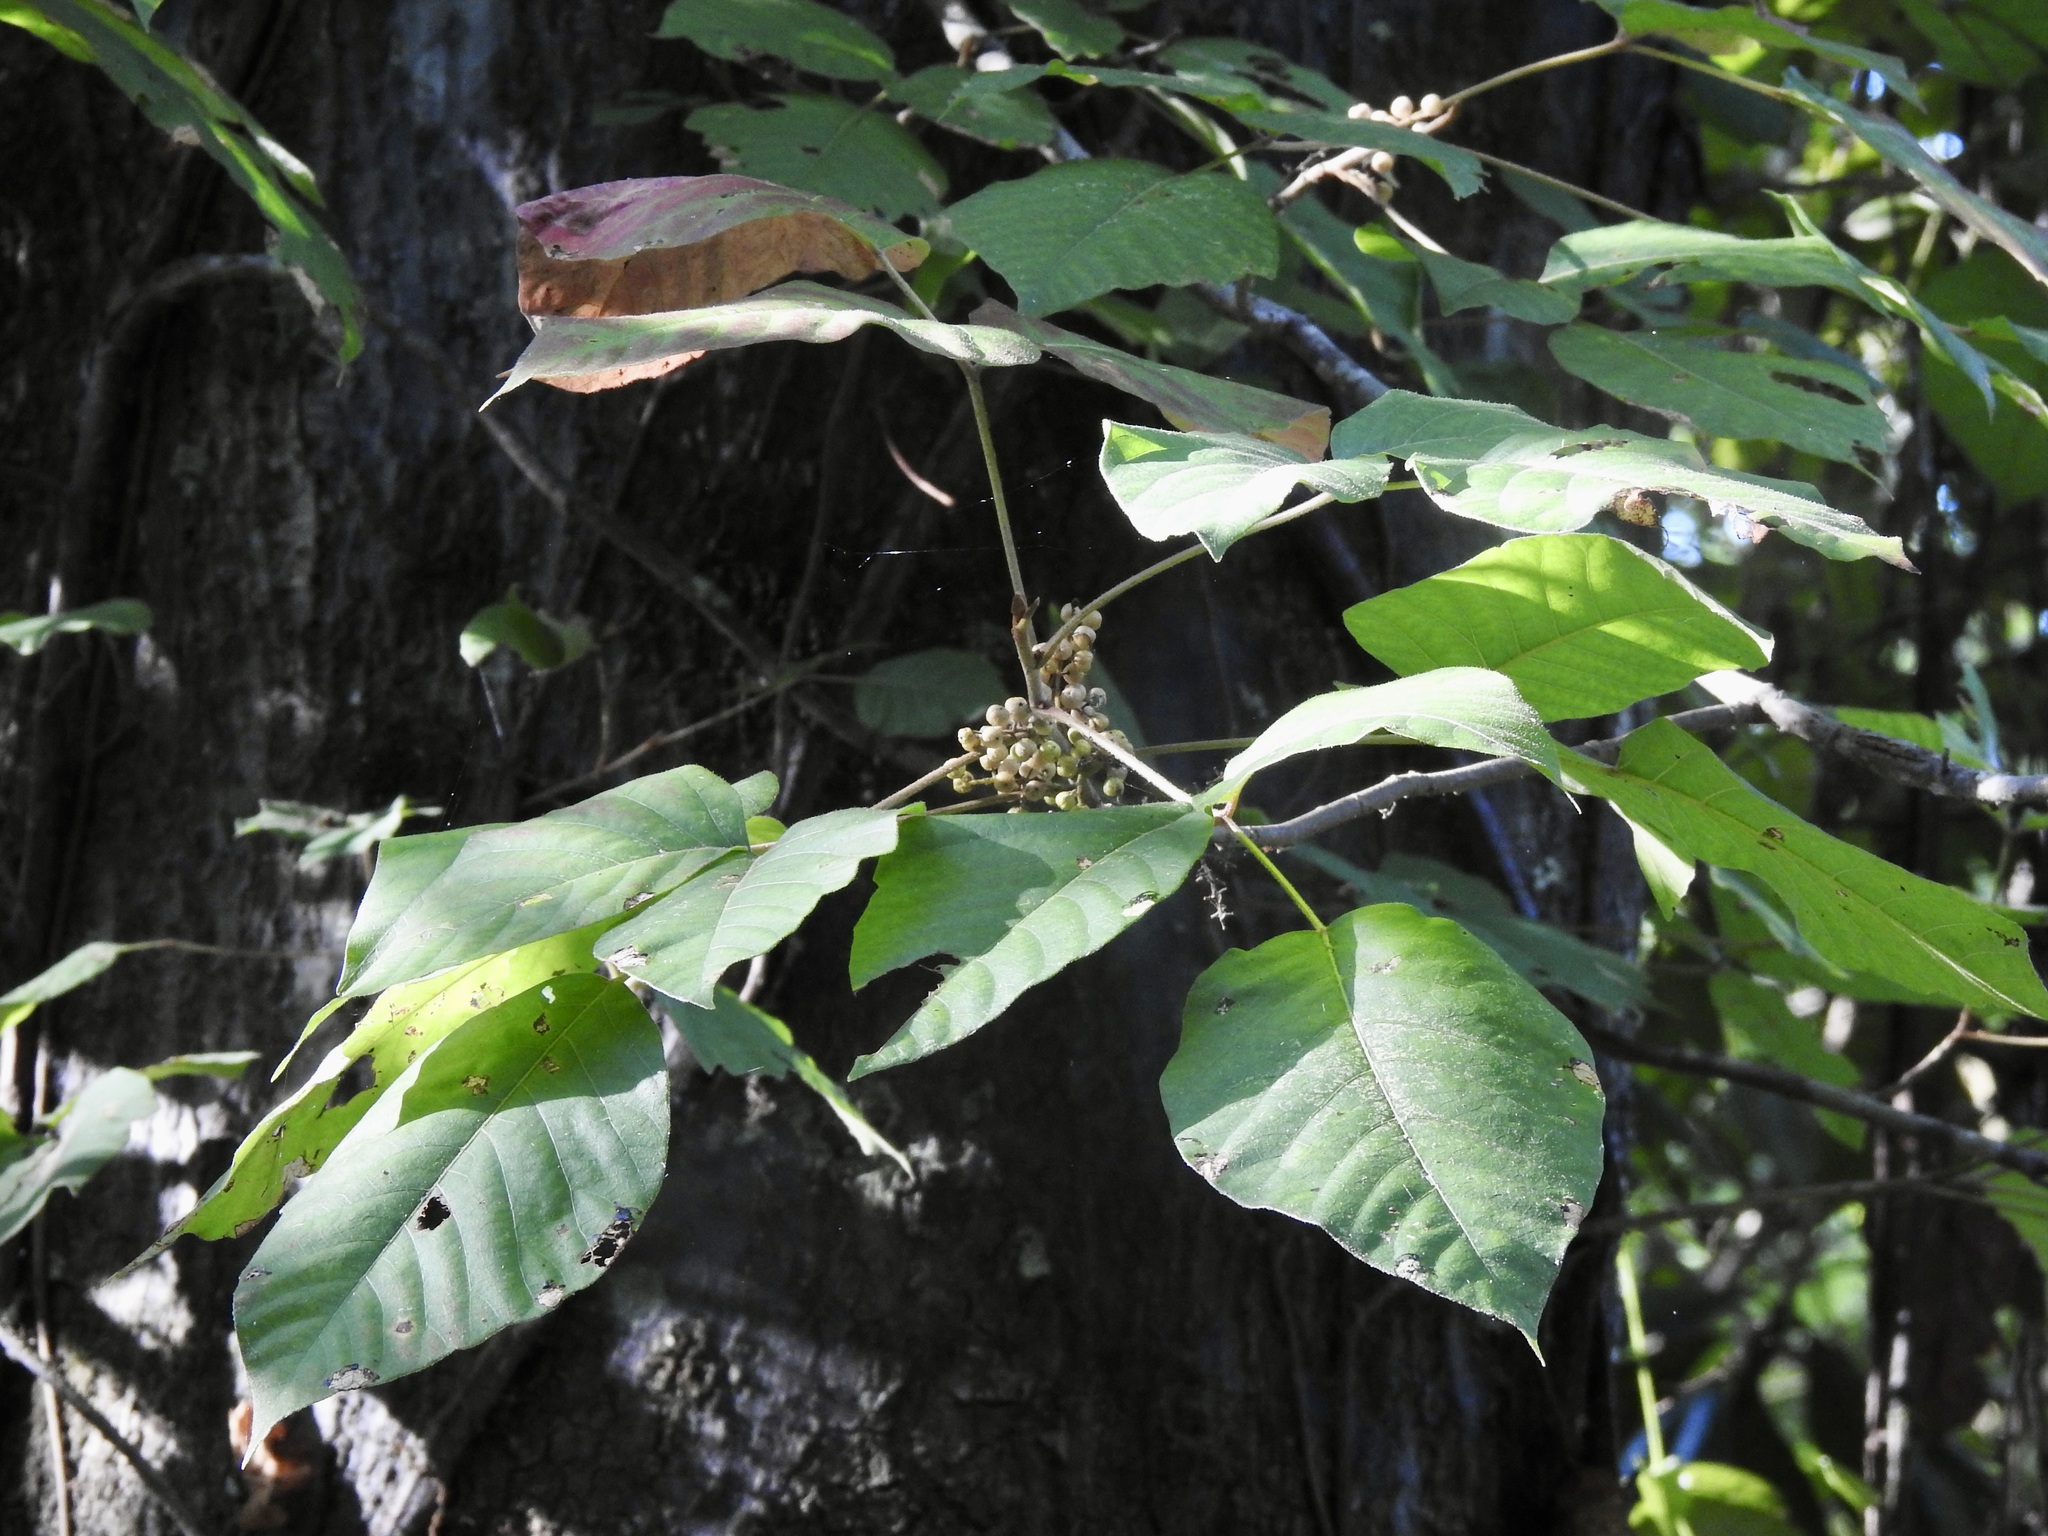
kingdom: Plantae
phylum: Tracheophyta
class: Magnoliopsida
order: Sapindales
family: Anacardiaceae
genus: Toxicodendron
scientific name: Toxicodendron radicans
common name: Poison ivy
